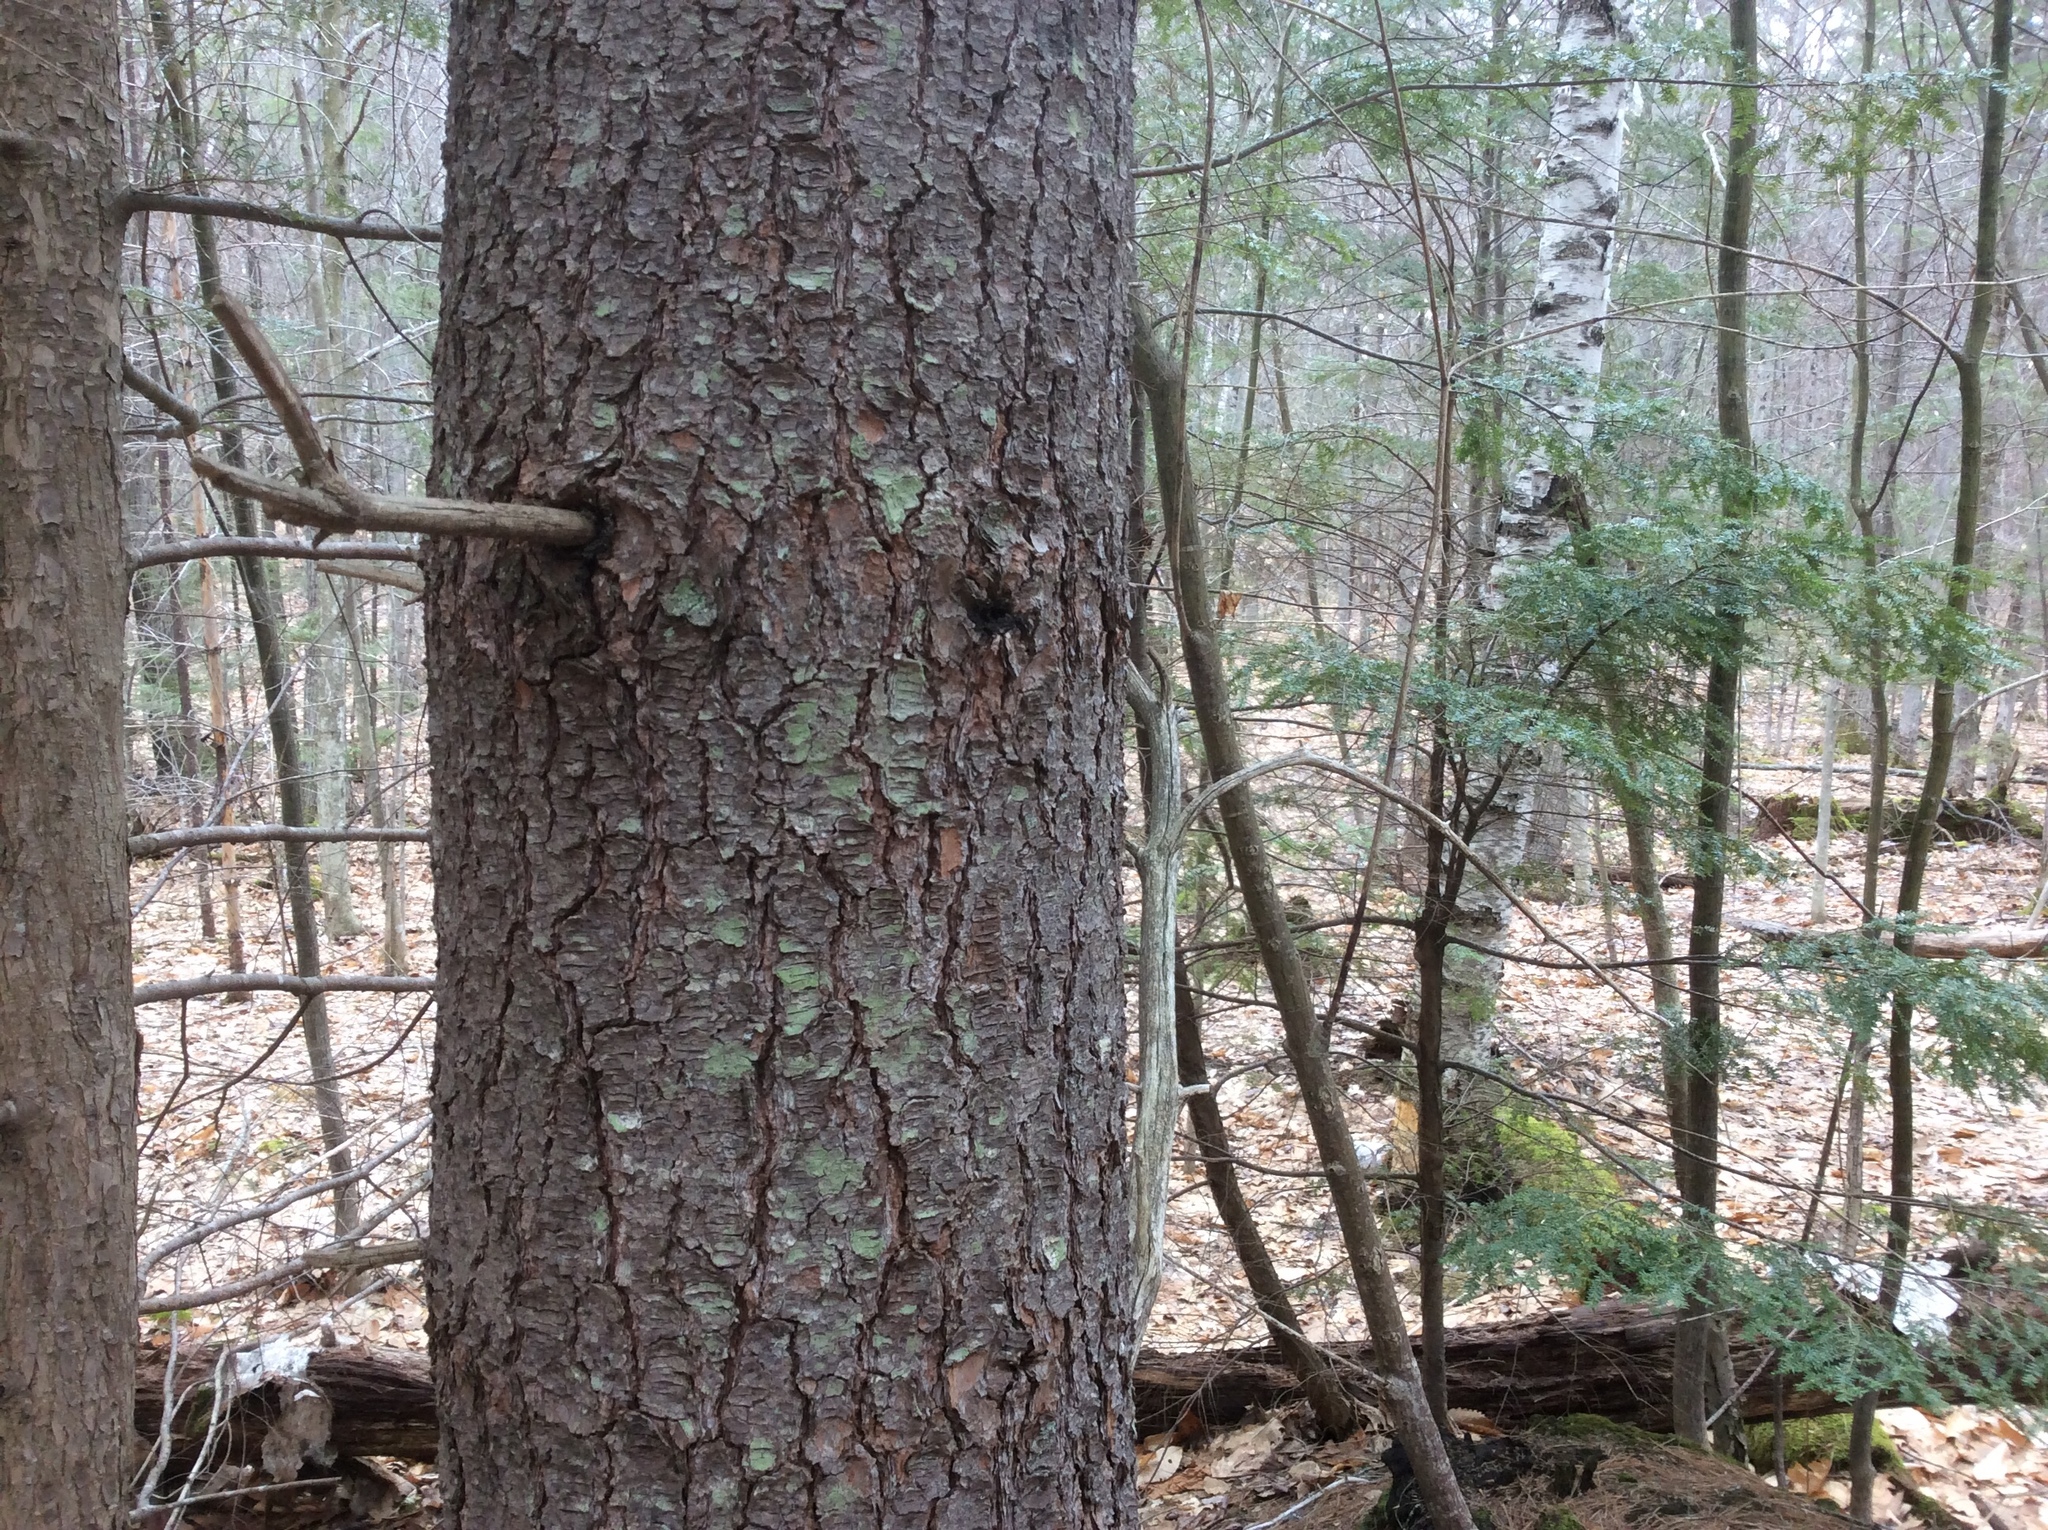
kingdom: Plantae
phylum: Tracheophyta
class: Pinopsida
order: Pinales
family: Pinaceae
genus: Pinus
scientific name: Pinus strobus
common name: Weymouth pine
